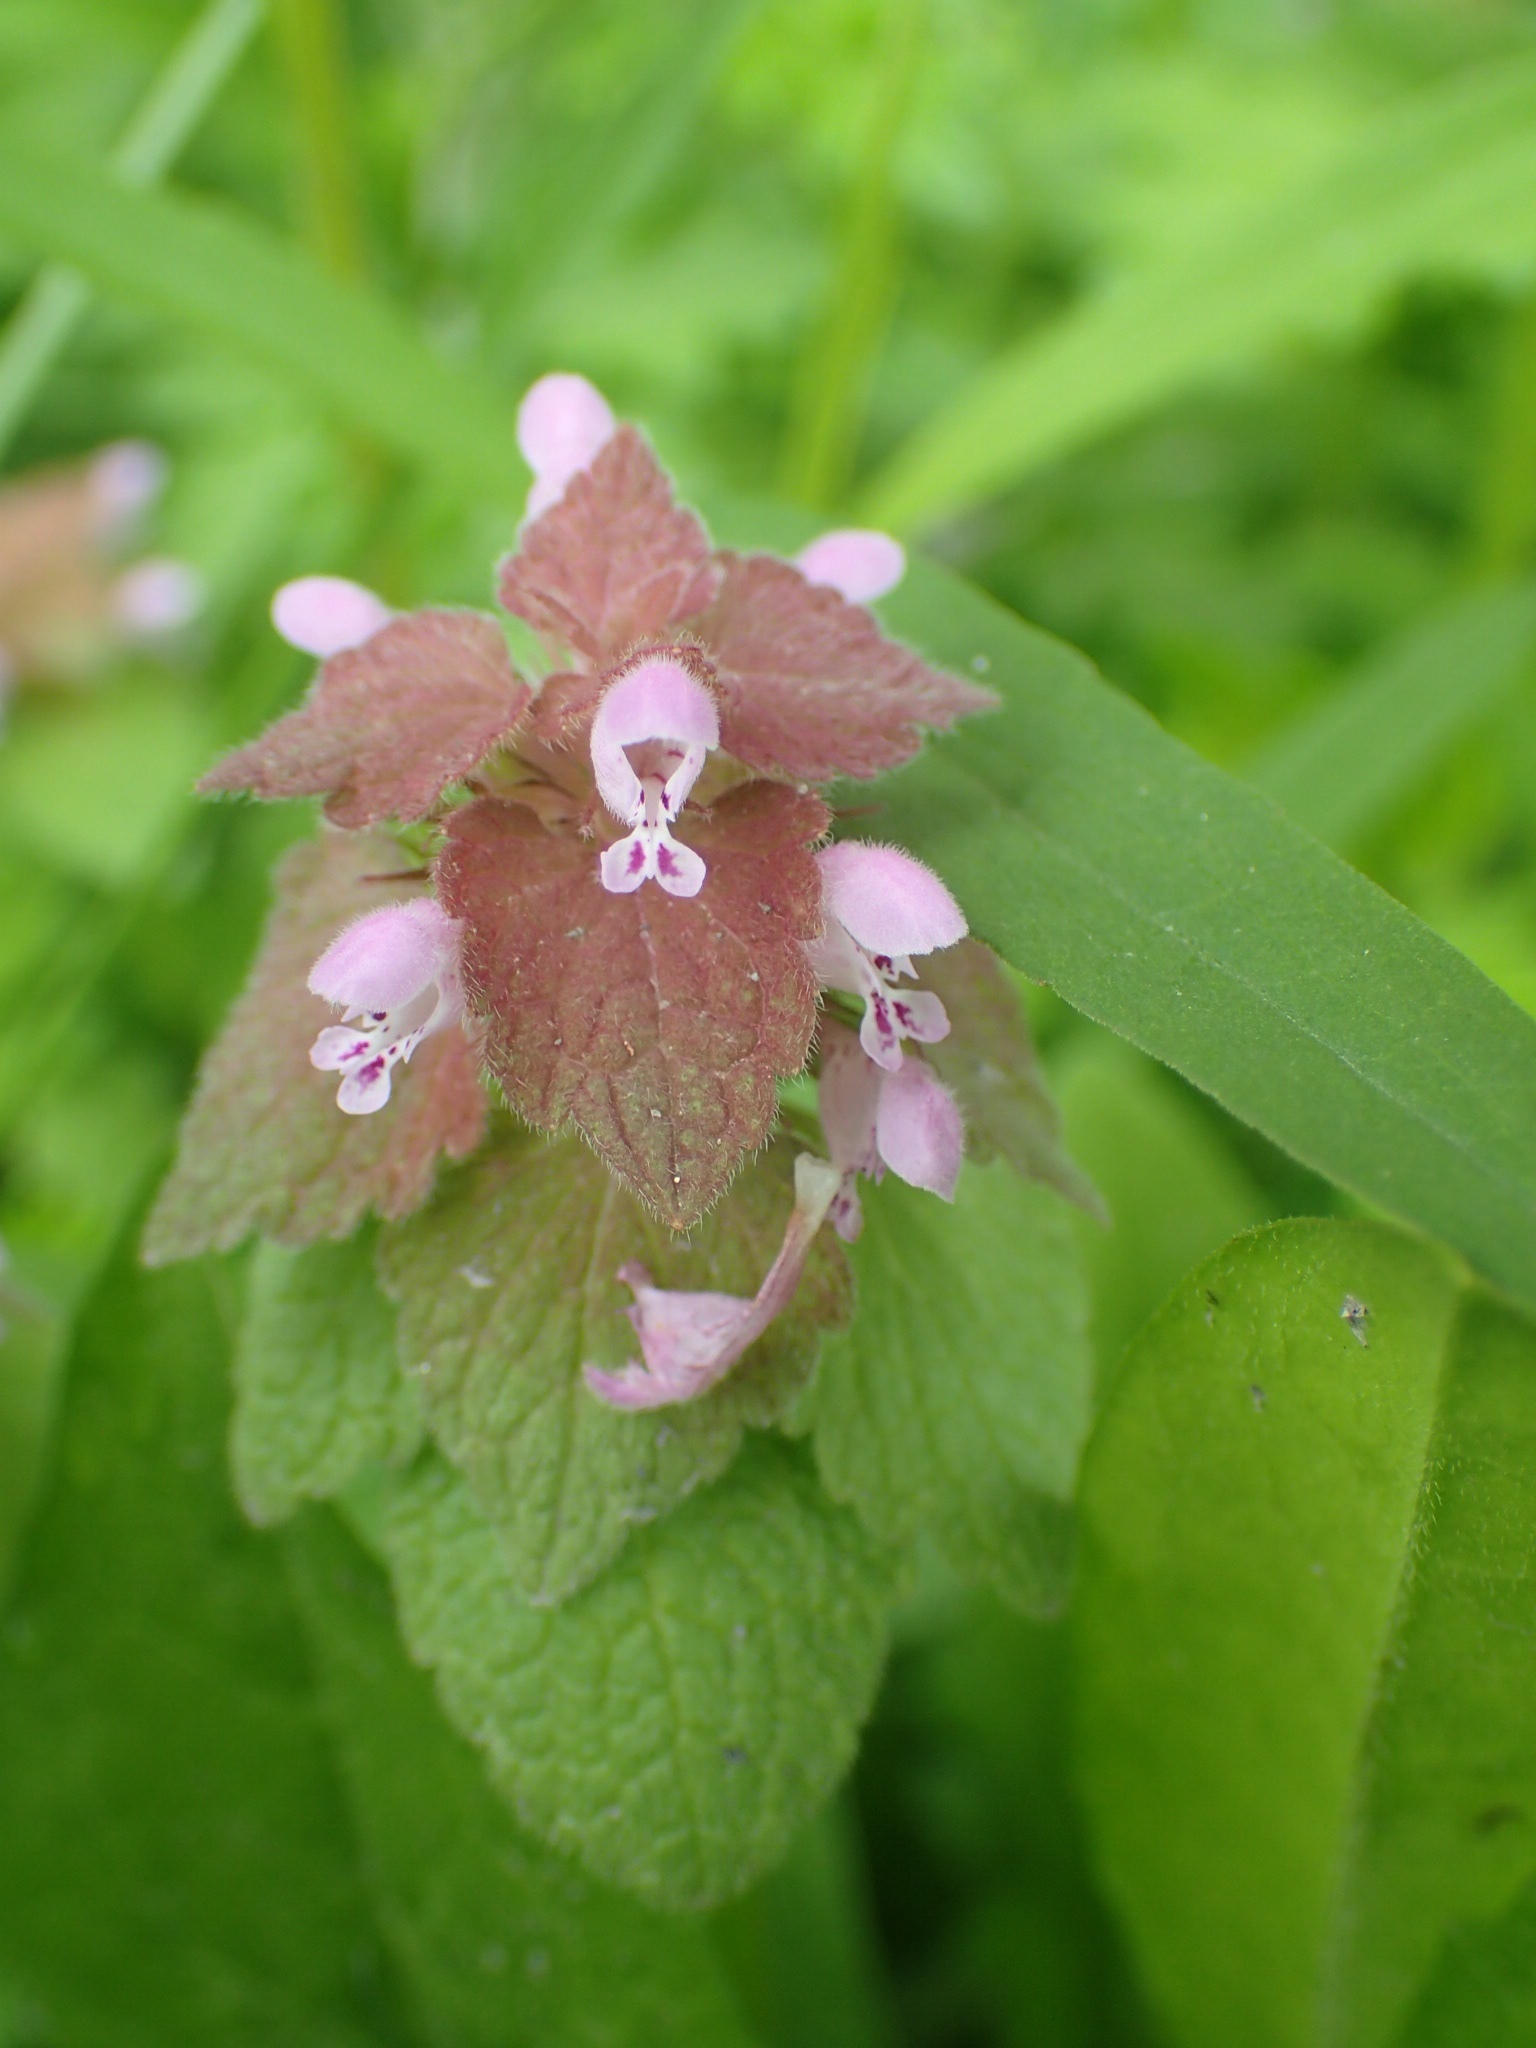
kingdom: Plantae
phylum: Tracheophyta
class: Magnoliopsida
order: Lamiales
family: Lamiaceae
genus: Lamium
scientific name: Lamium purpureum
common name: Red dead-nettle
